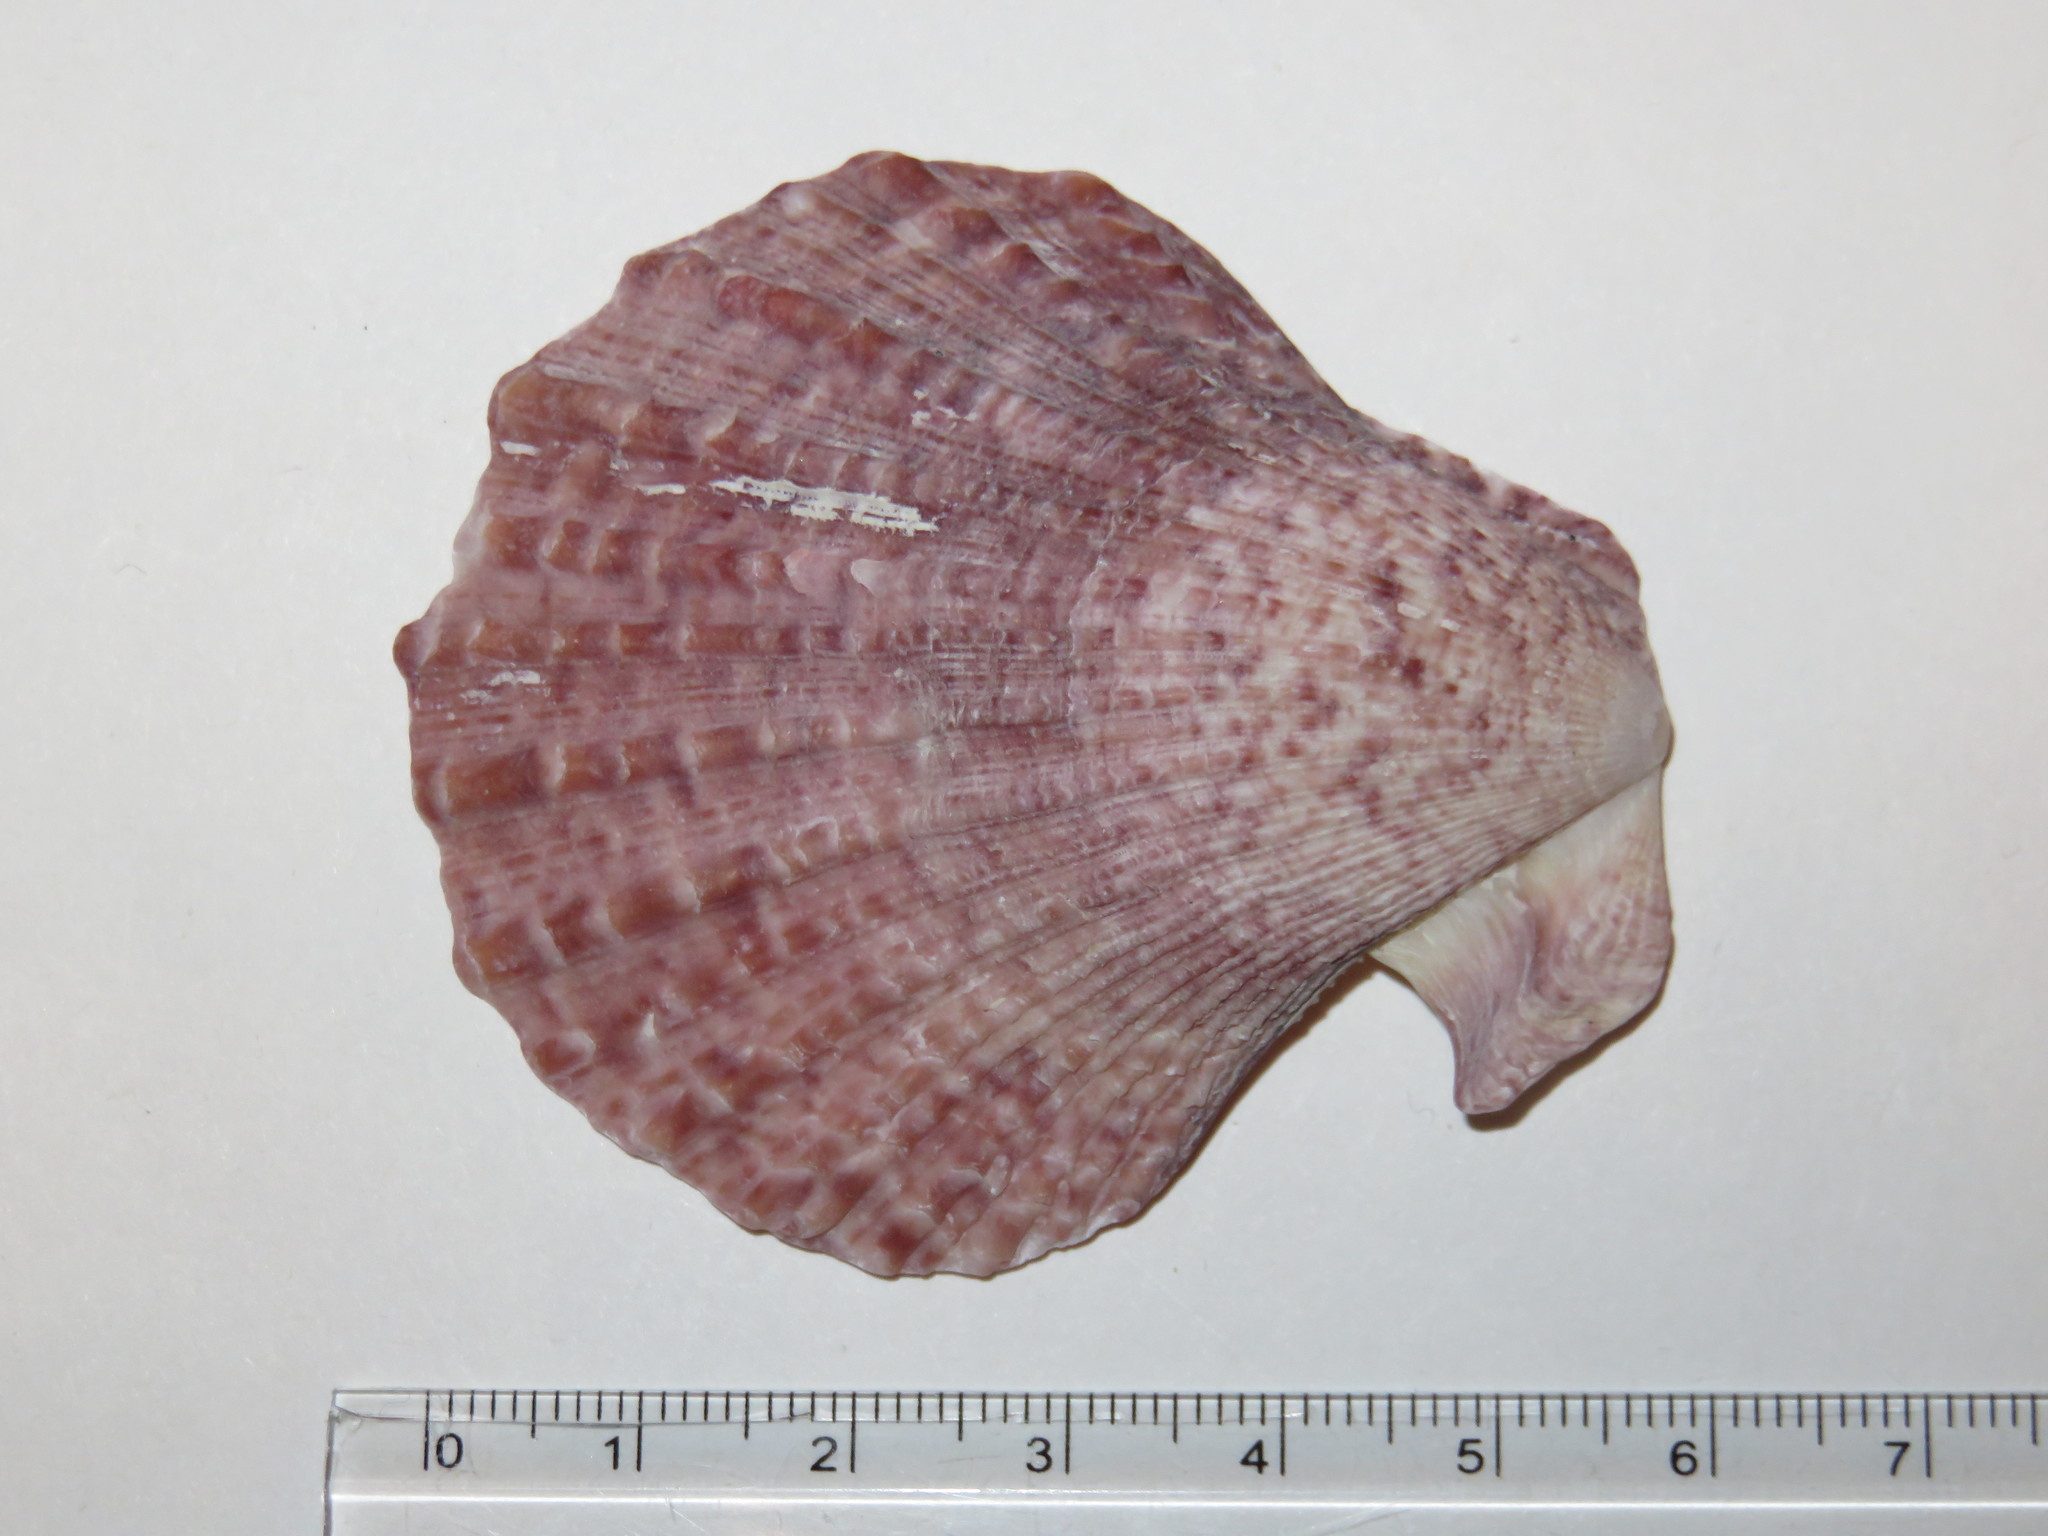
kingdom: Animalia
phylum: Mollusca
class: Bivalvia
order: Pectinida
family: Pectinidae
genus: Chlamys
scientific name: Chlamys farreri
